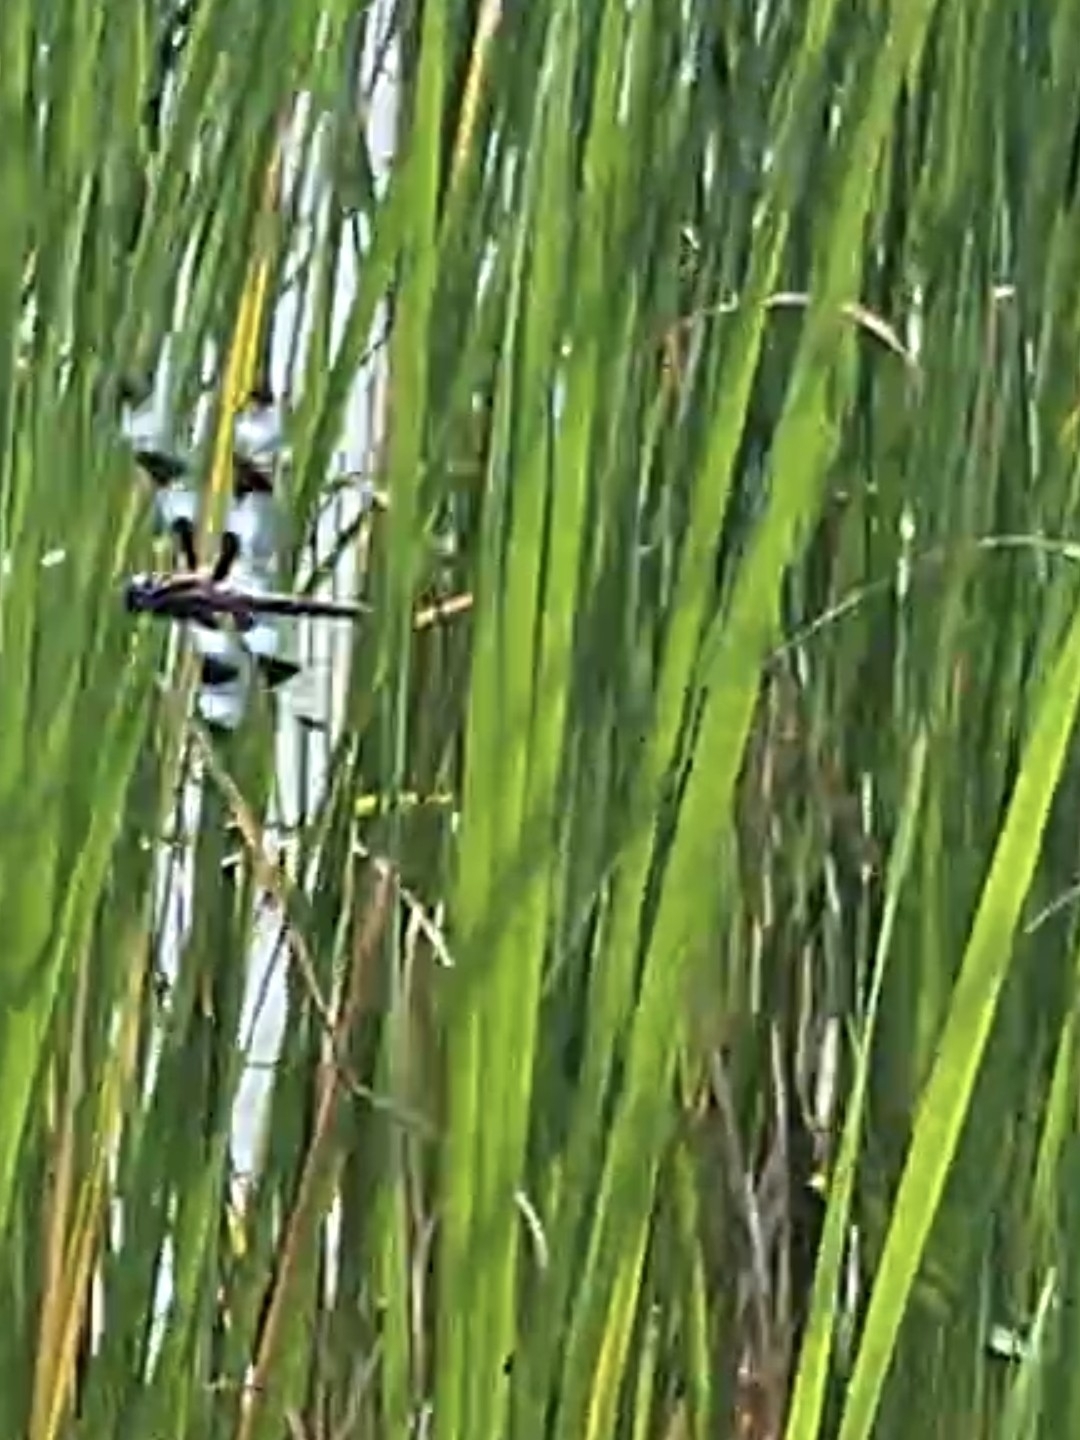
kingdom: Animalia
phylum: Arthropoda
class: Insecta
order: Odonata
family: Libellulidae
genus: Libellula
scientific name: Libellula pulchella
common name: Twelve-spotted skimmer
